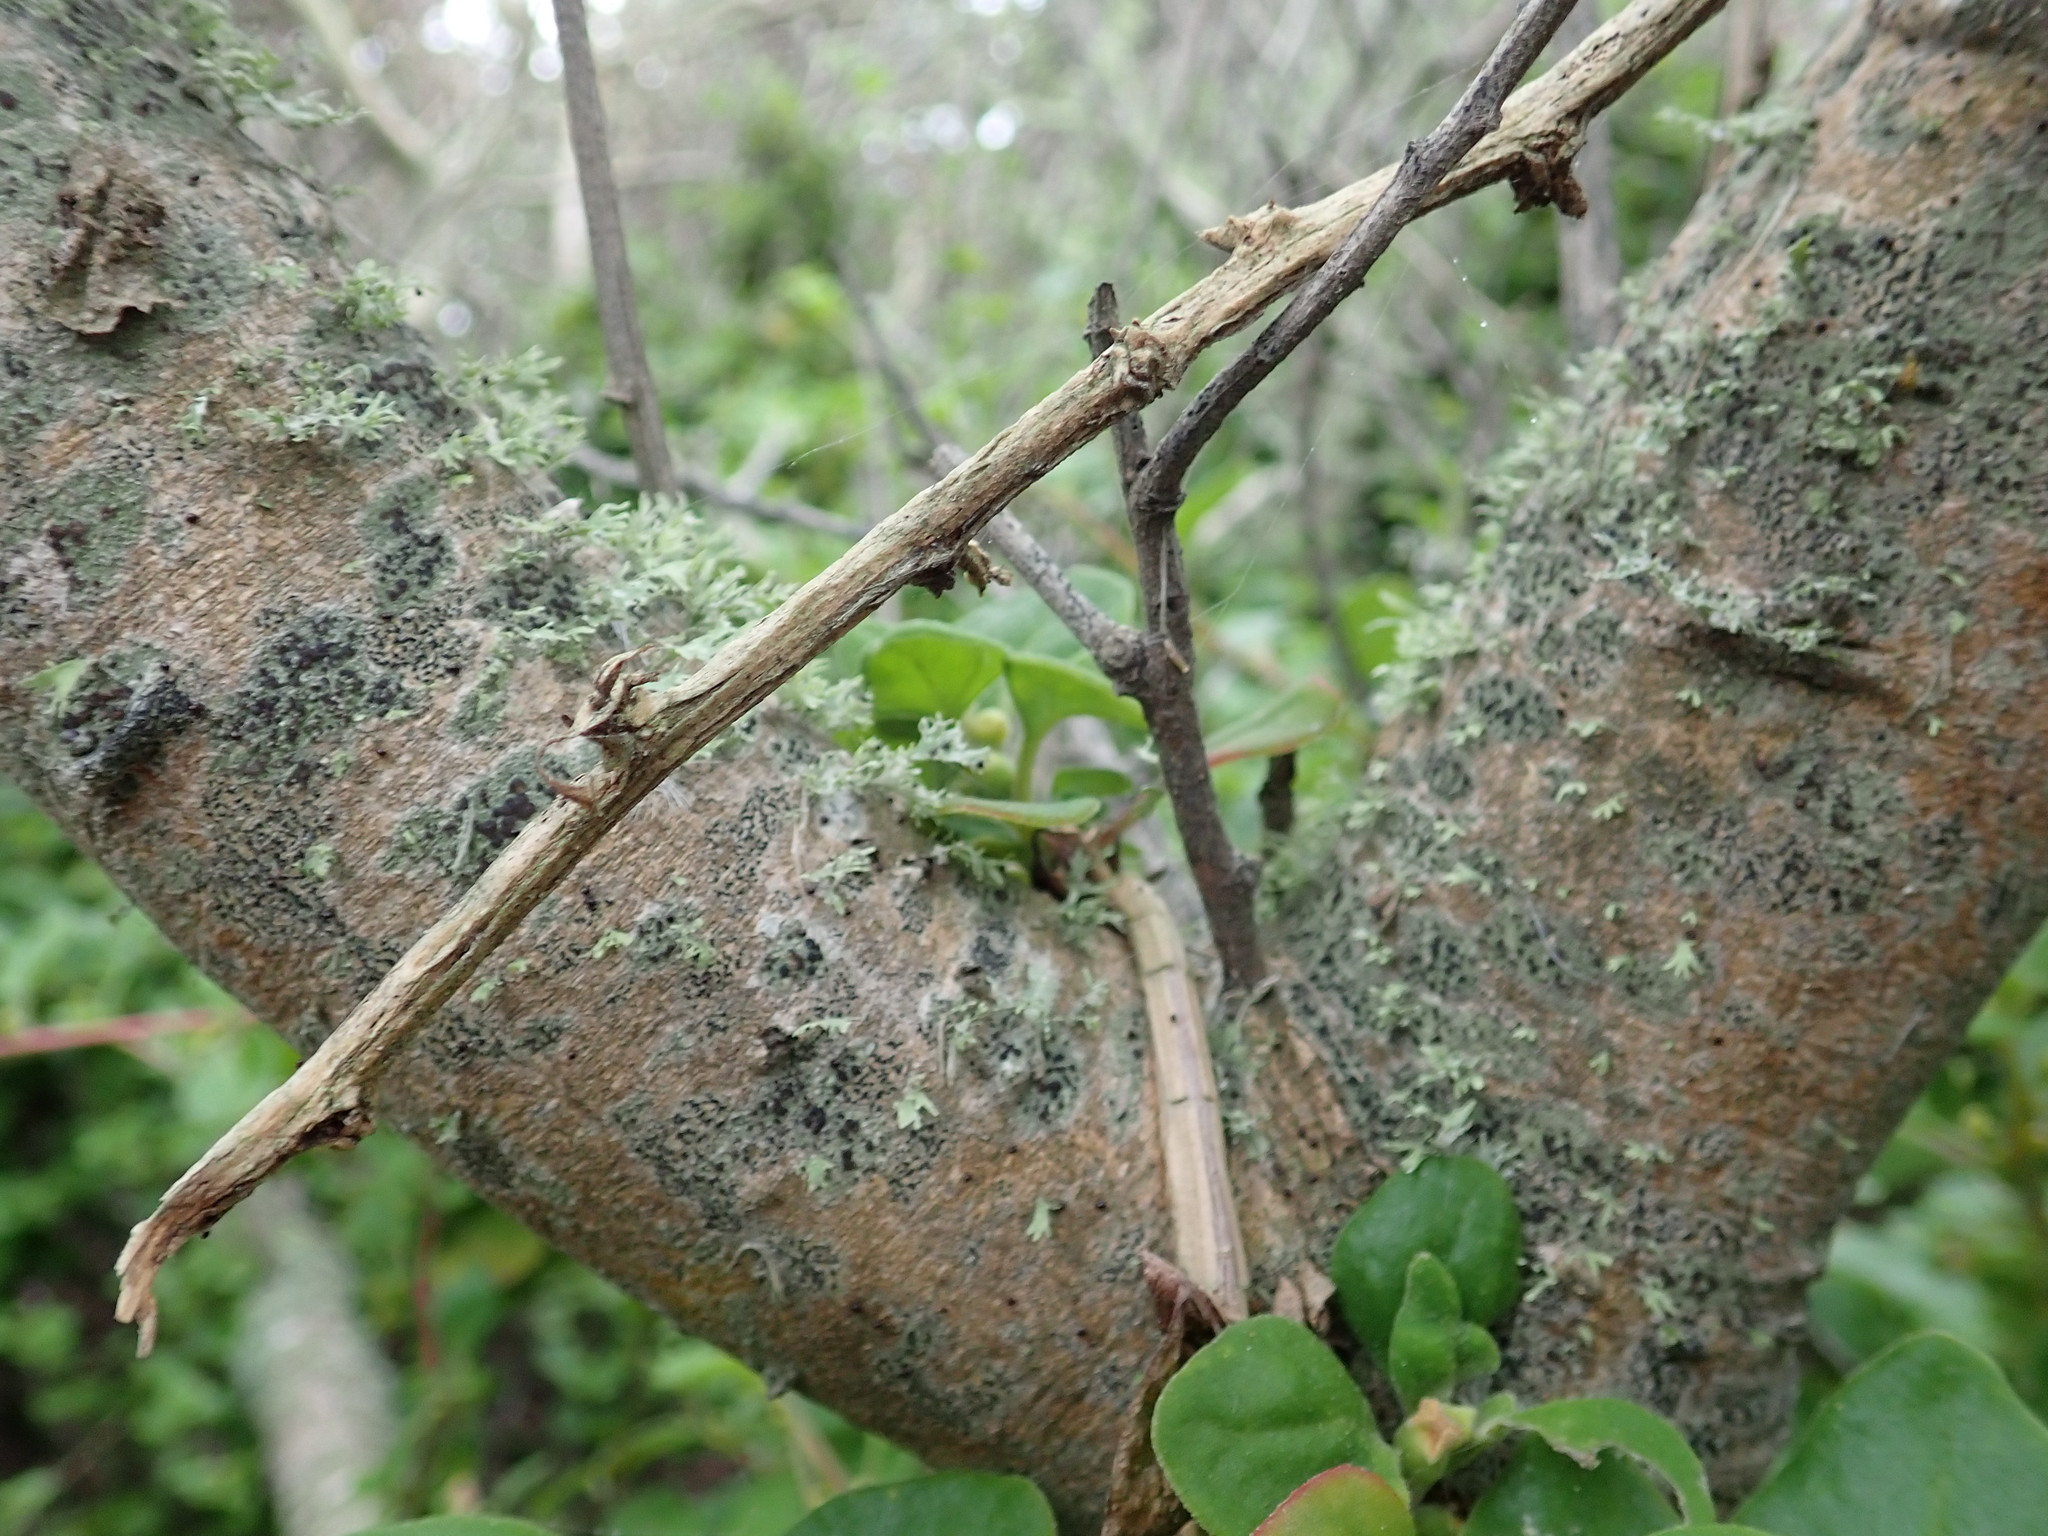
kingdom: Plantae
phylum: Tracheophyta
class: Magnoliopsida
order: Caryophyllales
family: Aizoaceae
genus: Tetragonia
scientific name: Tetragonia implexicoma
